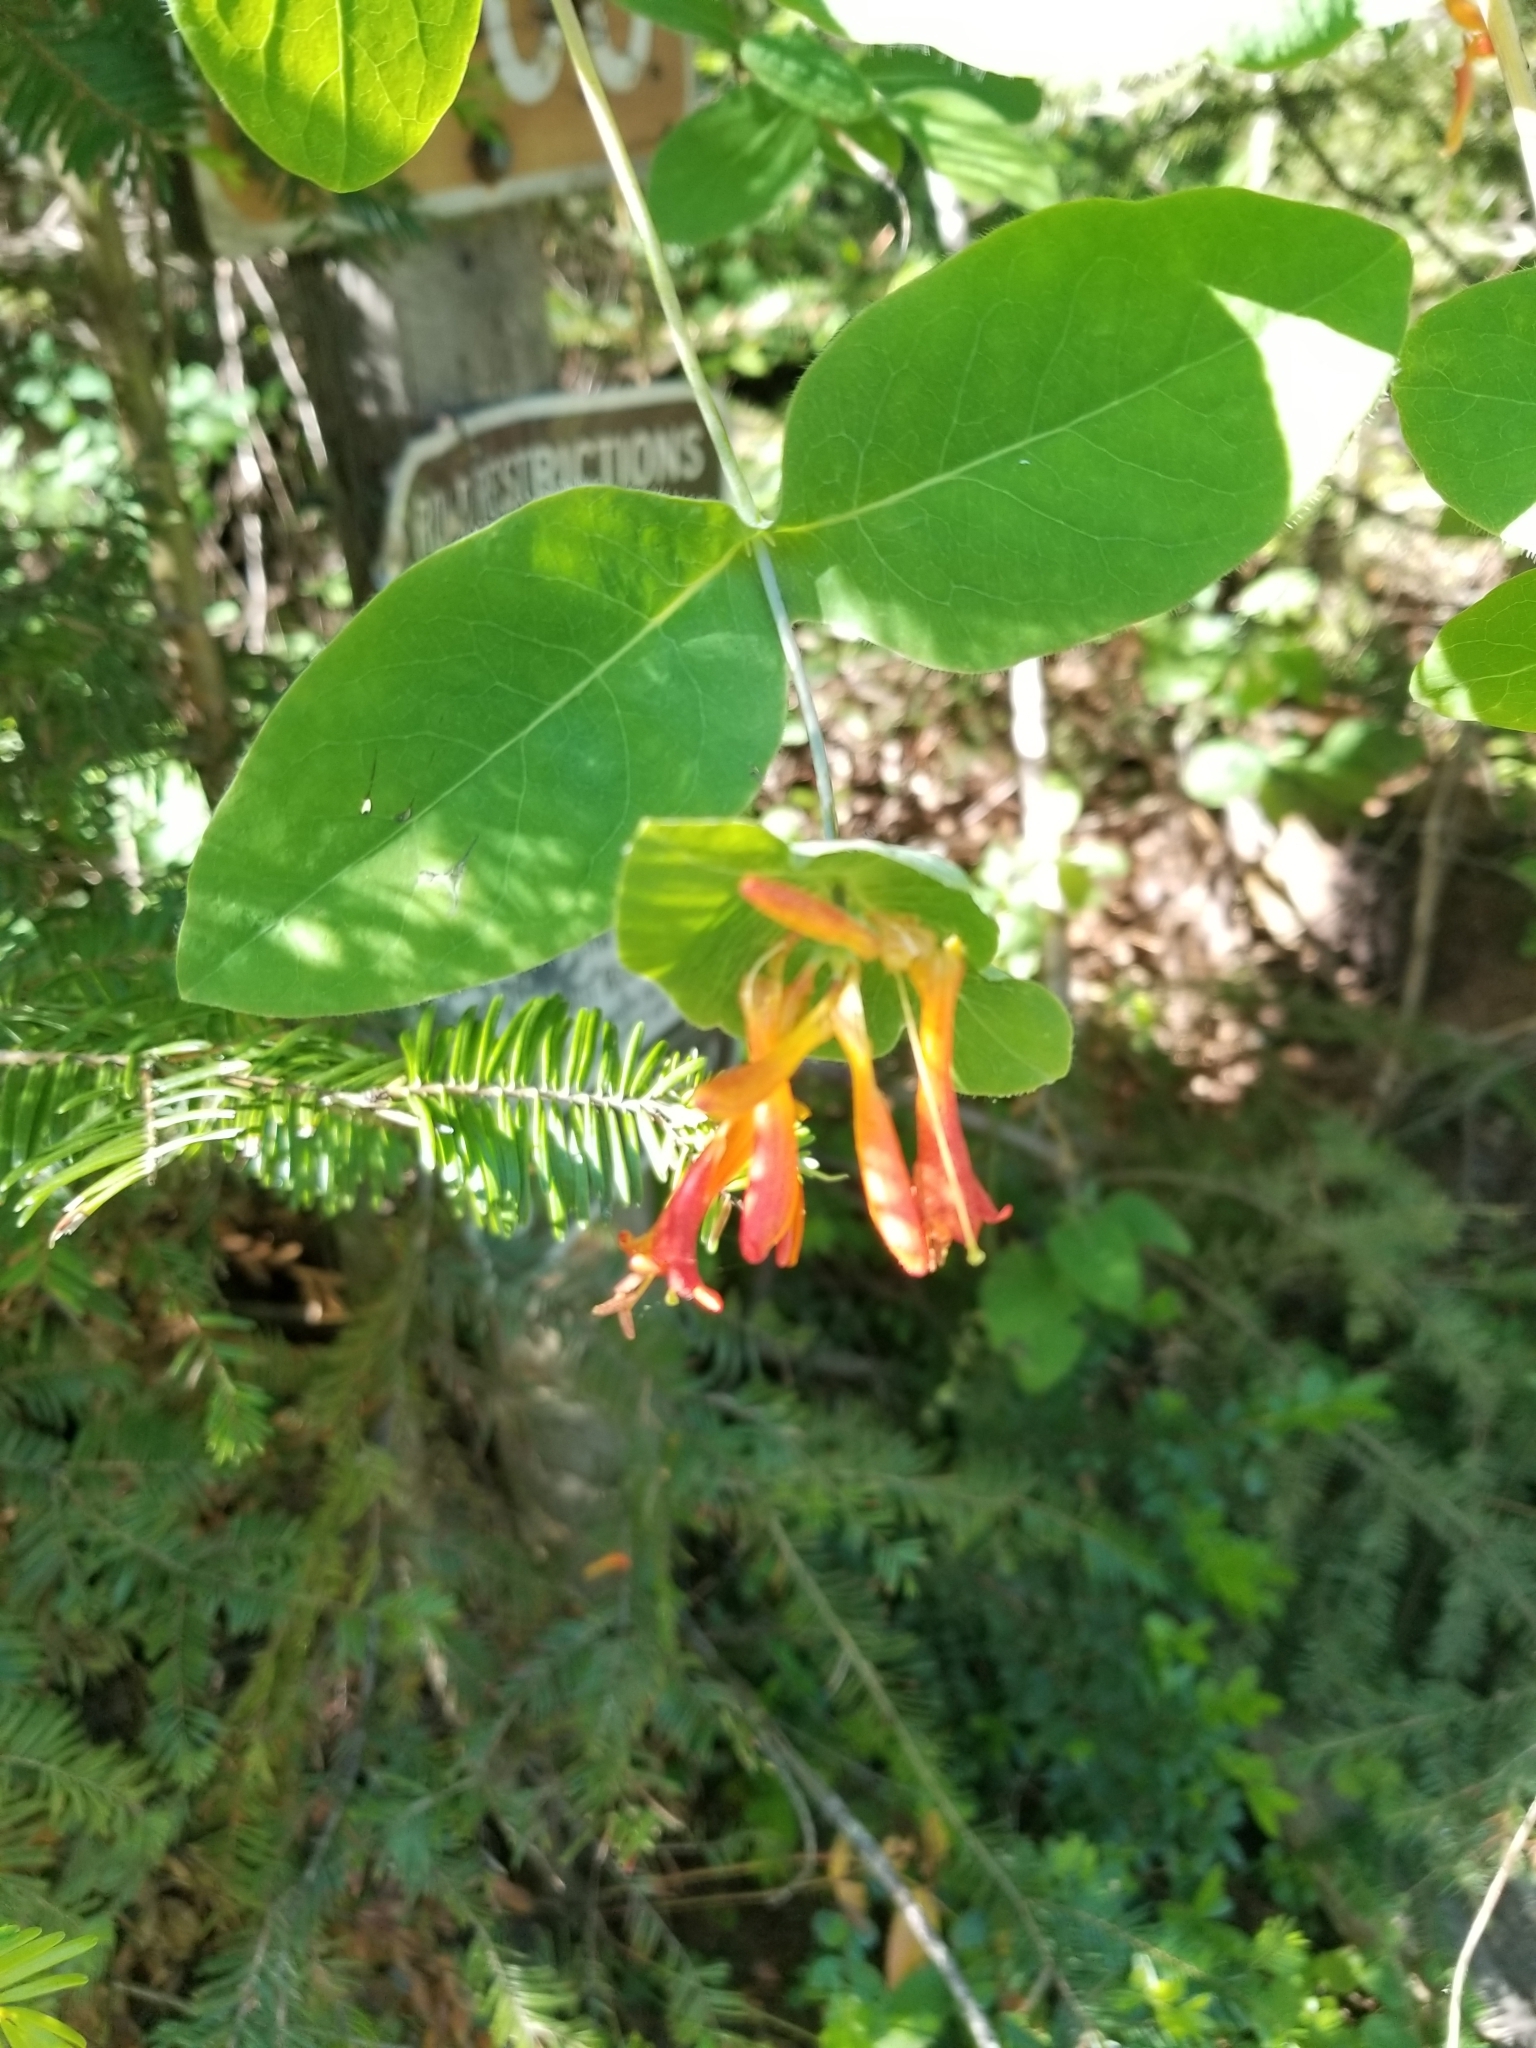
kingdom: Plantae
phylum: Tracheophyta
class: Magnoliopsida
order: Dipsacales
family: Caprifoliaceae
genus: Lonicera
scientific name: Lonicera ciliosa
